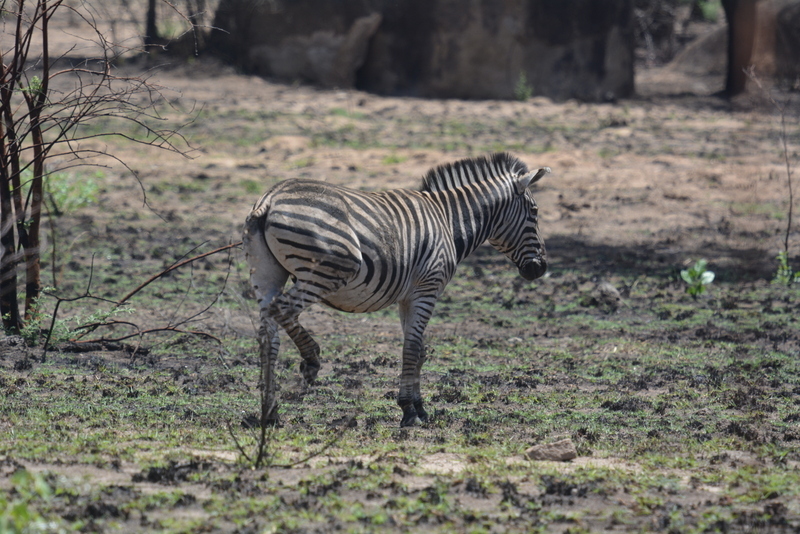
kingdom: Animalia
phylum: Chordata
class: Mammalia
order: Perissodactyla
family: Equidae
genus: Equus
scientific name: Equus quagga
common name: Plains zebra
